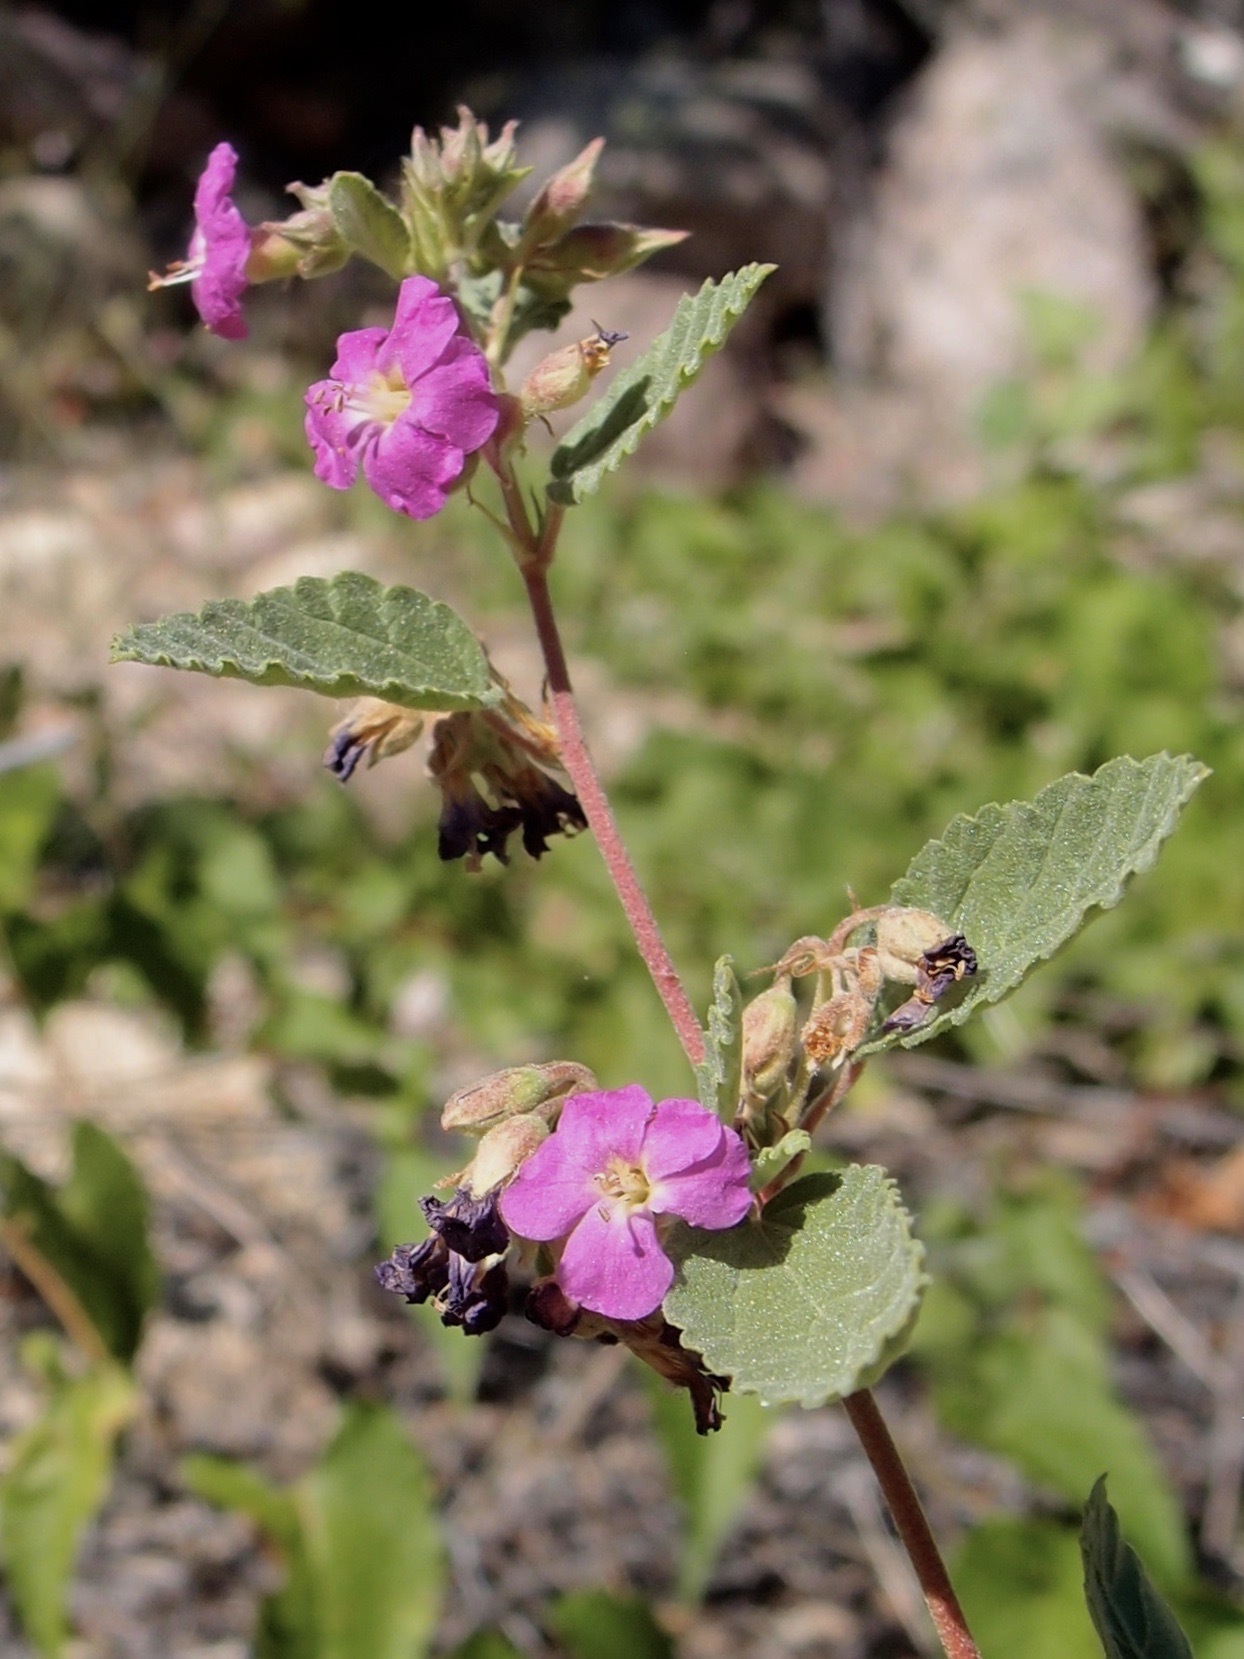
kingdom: Plantae
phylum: Tracheophyta
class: Magnoliopsida
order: Malvales
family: Malvaceae
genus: Melochia
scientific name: Melochia tomentosa
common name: Black torch
